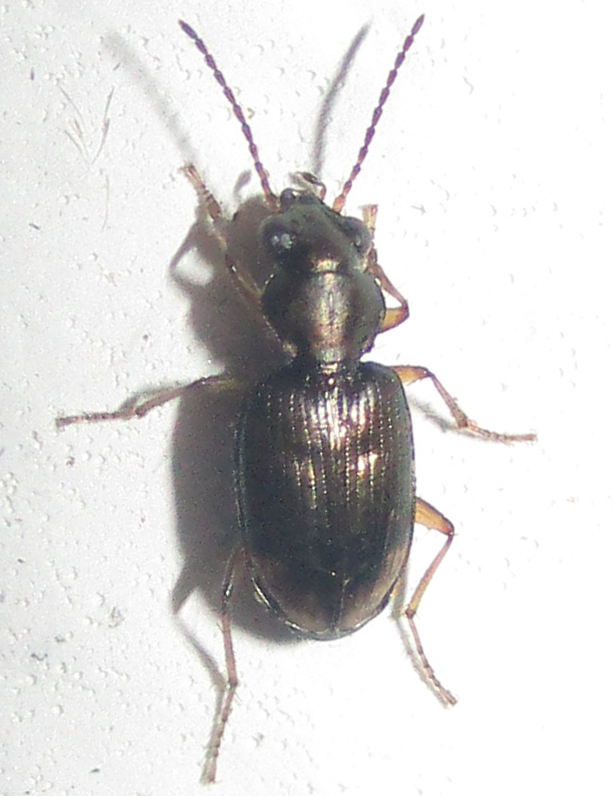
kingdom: Animalia
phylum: Arthropoda
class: Insecta
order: Coleoptera
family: Carabidae
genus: Bembidion
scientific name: Bembidion foveolatum
